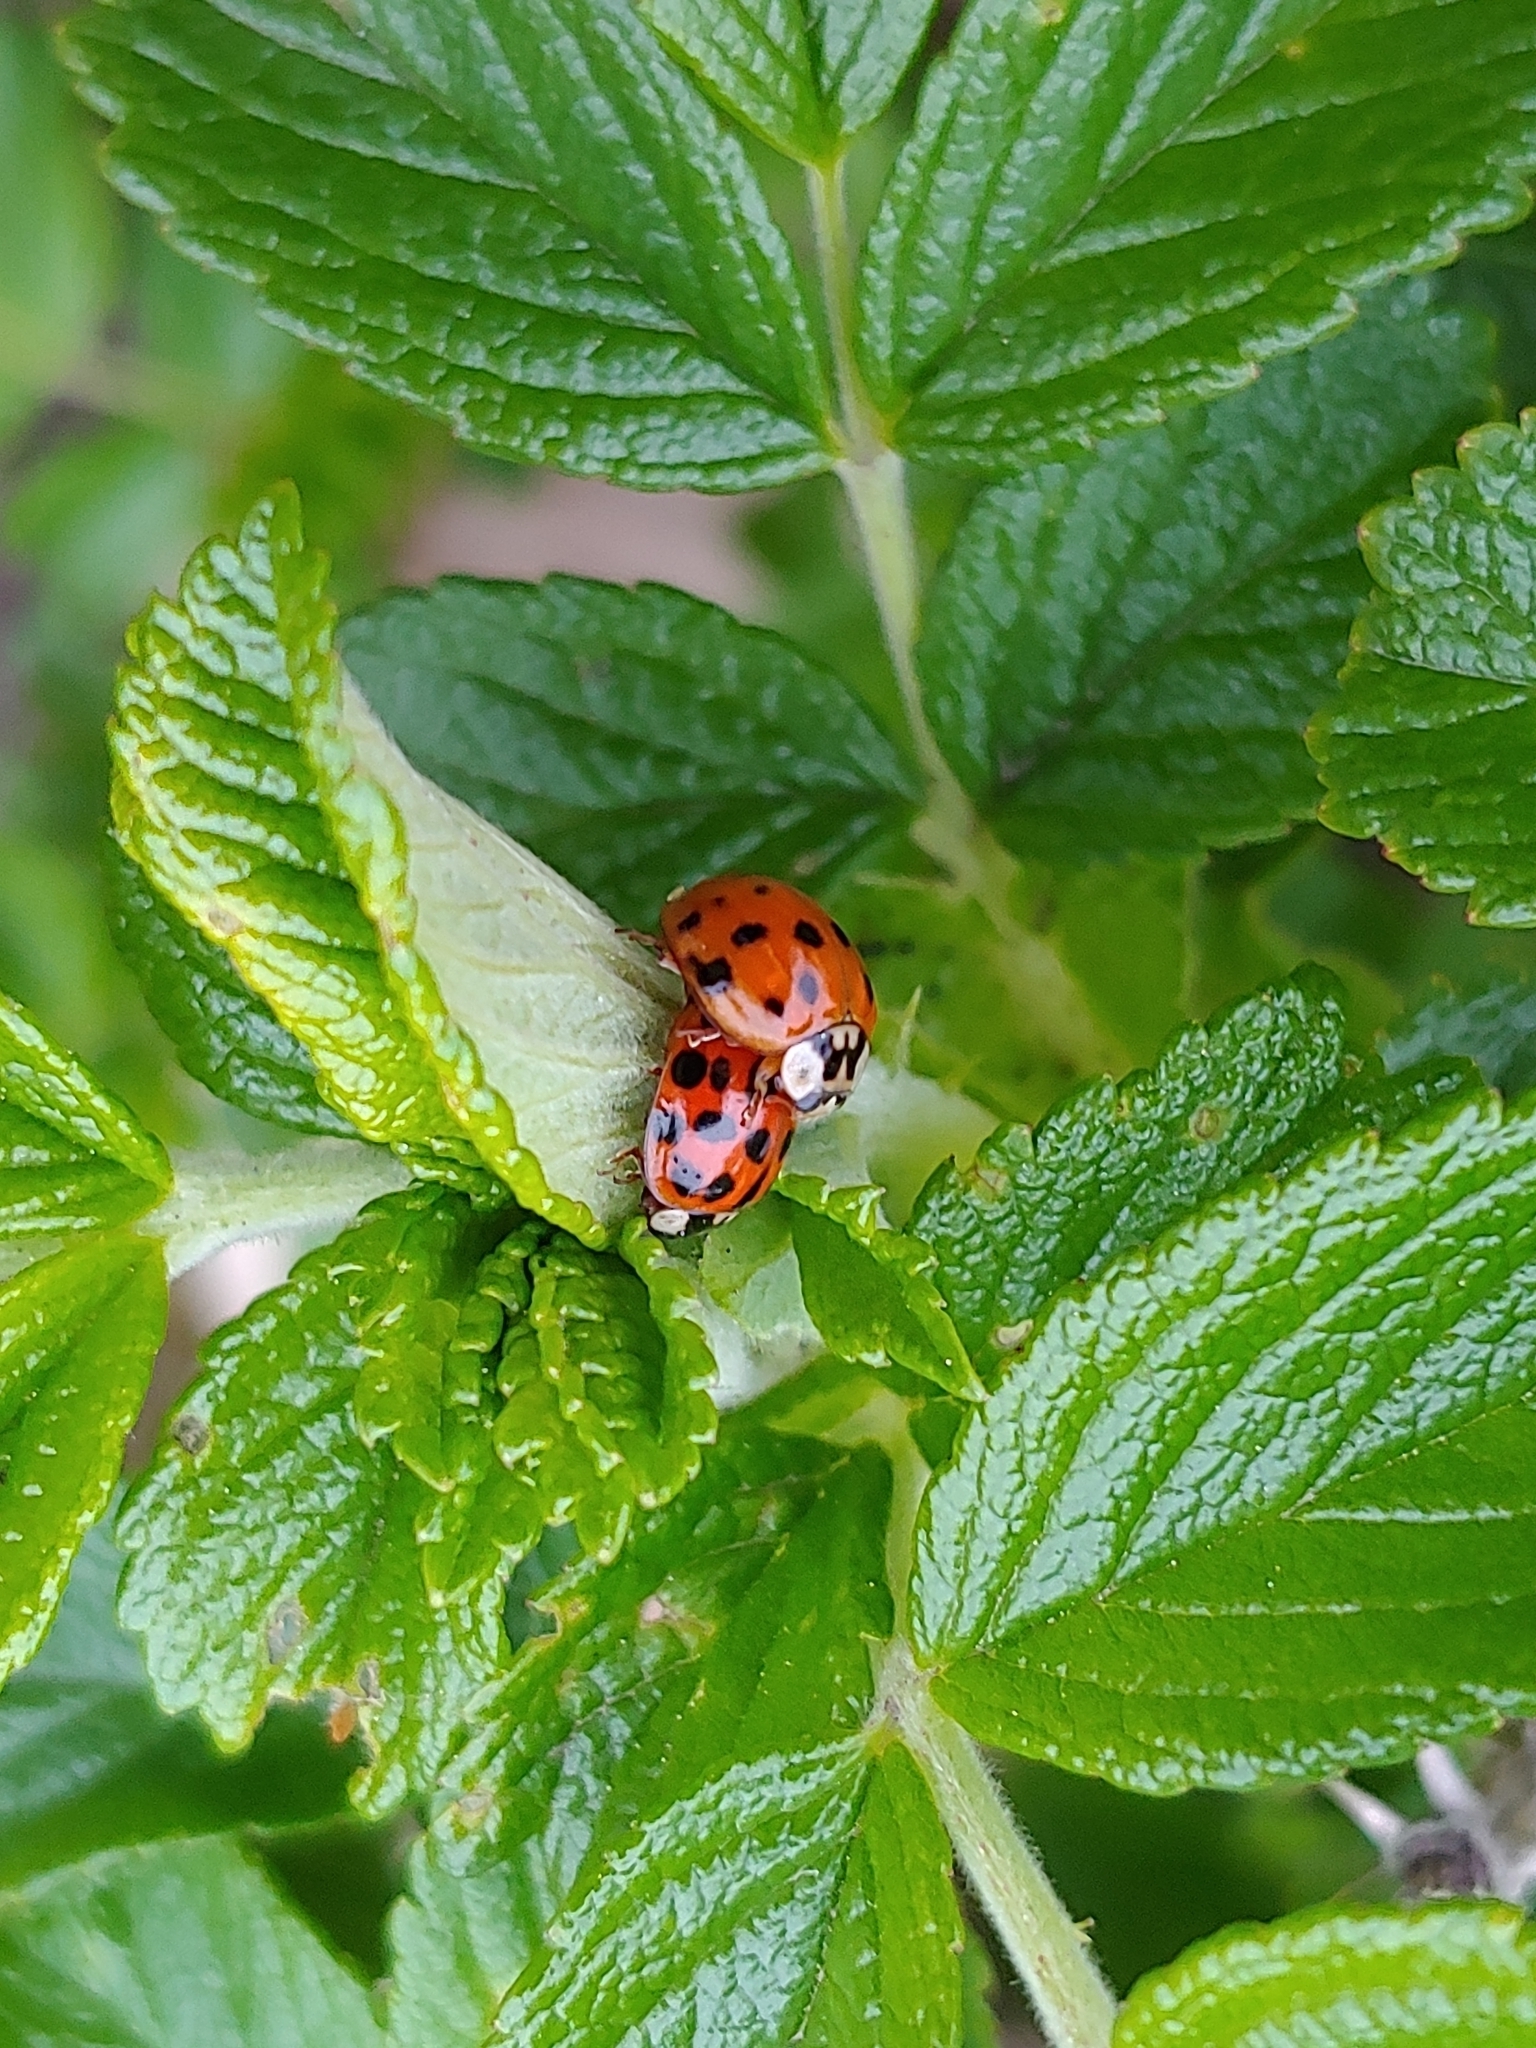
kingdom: Animalia
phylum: Arthropoda
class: Insecta
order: Coleoptera
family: Coccinellidae
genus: Harmonia
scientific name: Harmonia axyridis
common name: Harlequin ladybird
